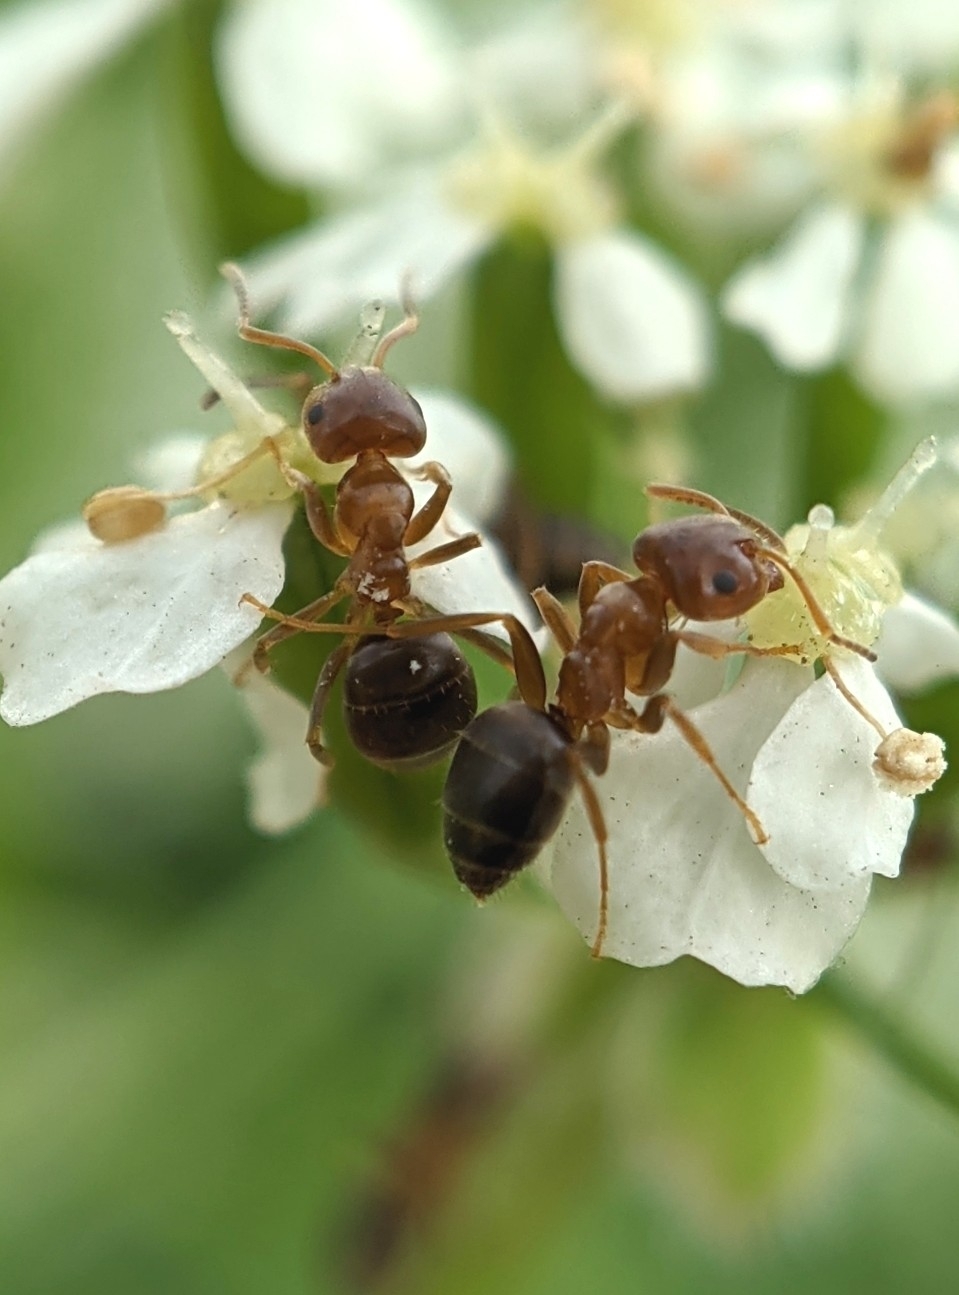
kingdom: Animalia
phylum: Arthropoda
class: Insecta
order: Hymenoptera
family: Formicidae
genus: Lasius
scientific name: Lasius brunneus
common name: Brown ant
